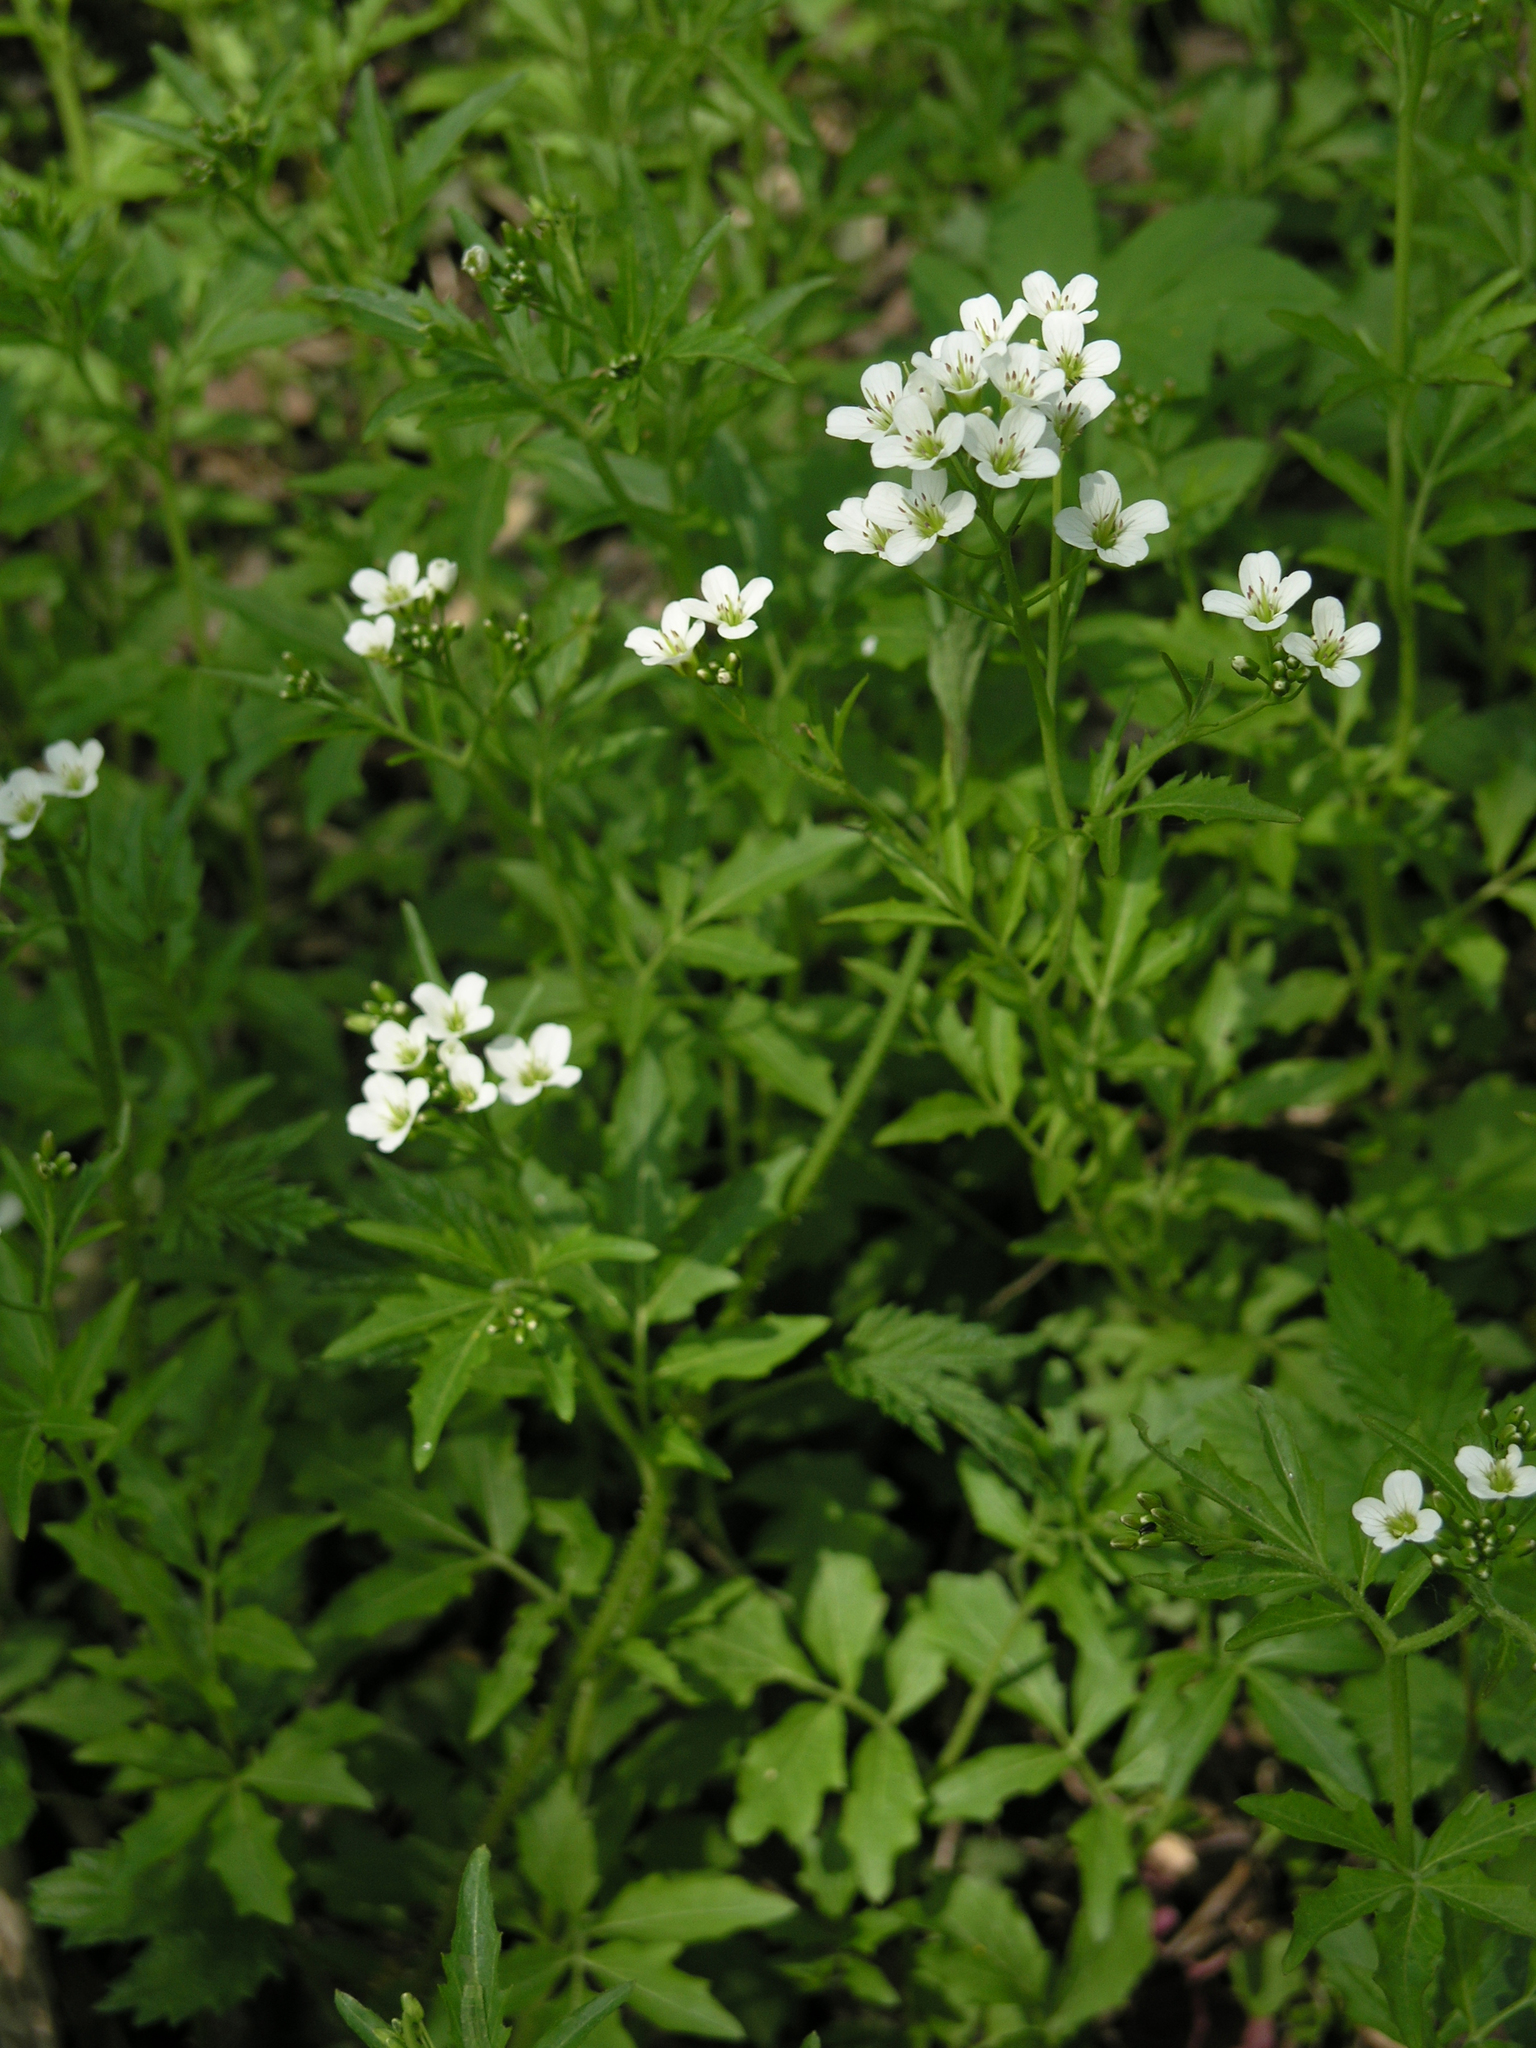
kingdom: Plantae
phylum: Tracheophyta
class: Magnoliopsida
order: Brassicales
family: Brassicaceae
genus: Cardamine
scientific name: Cardamine amara
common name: Large bitter-cress
